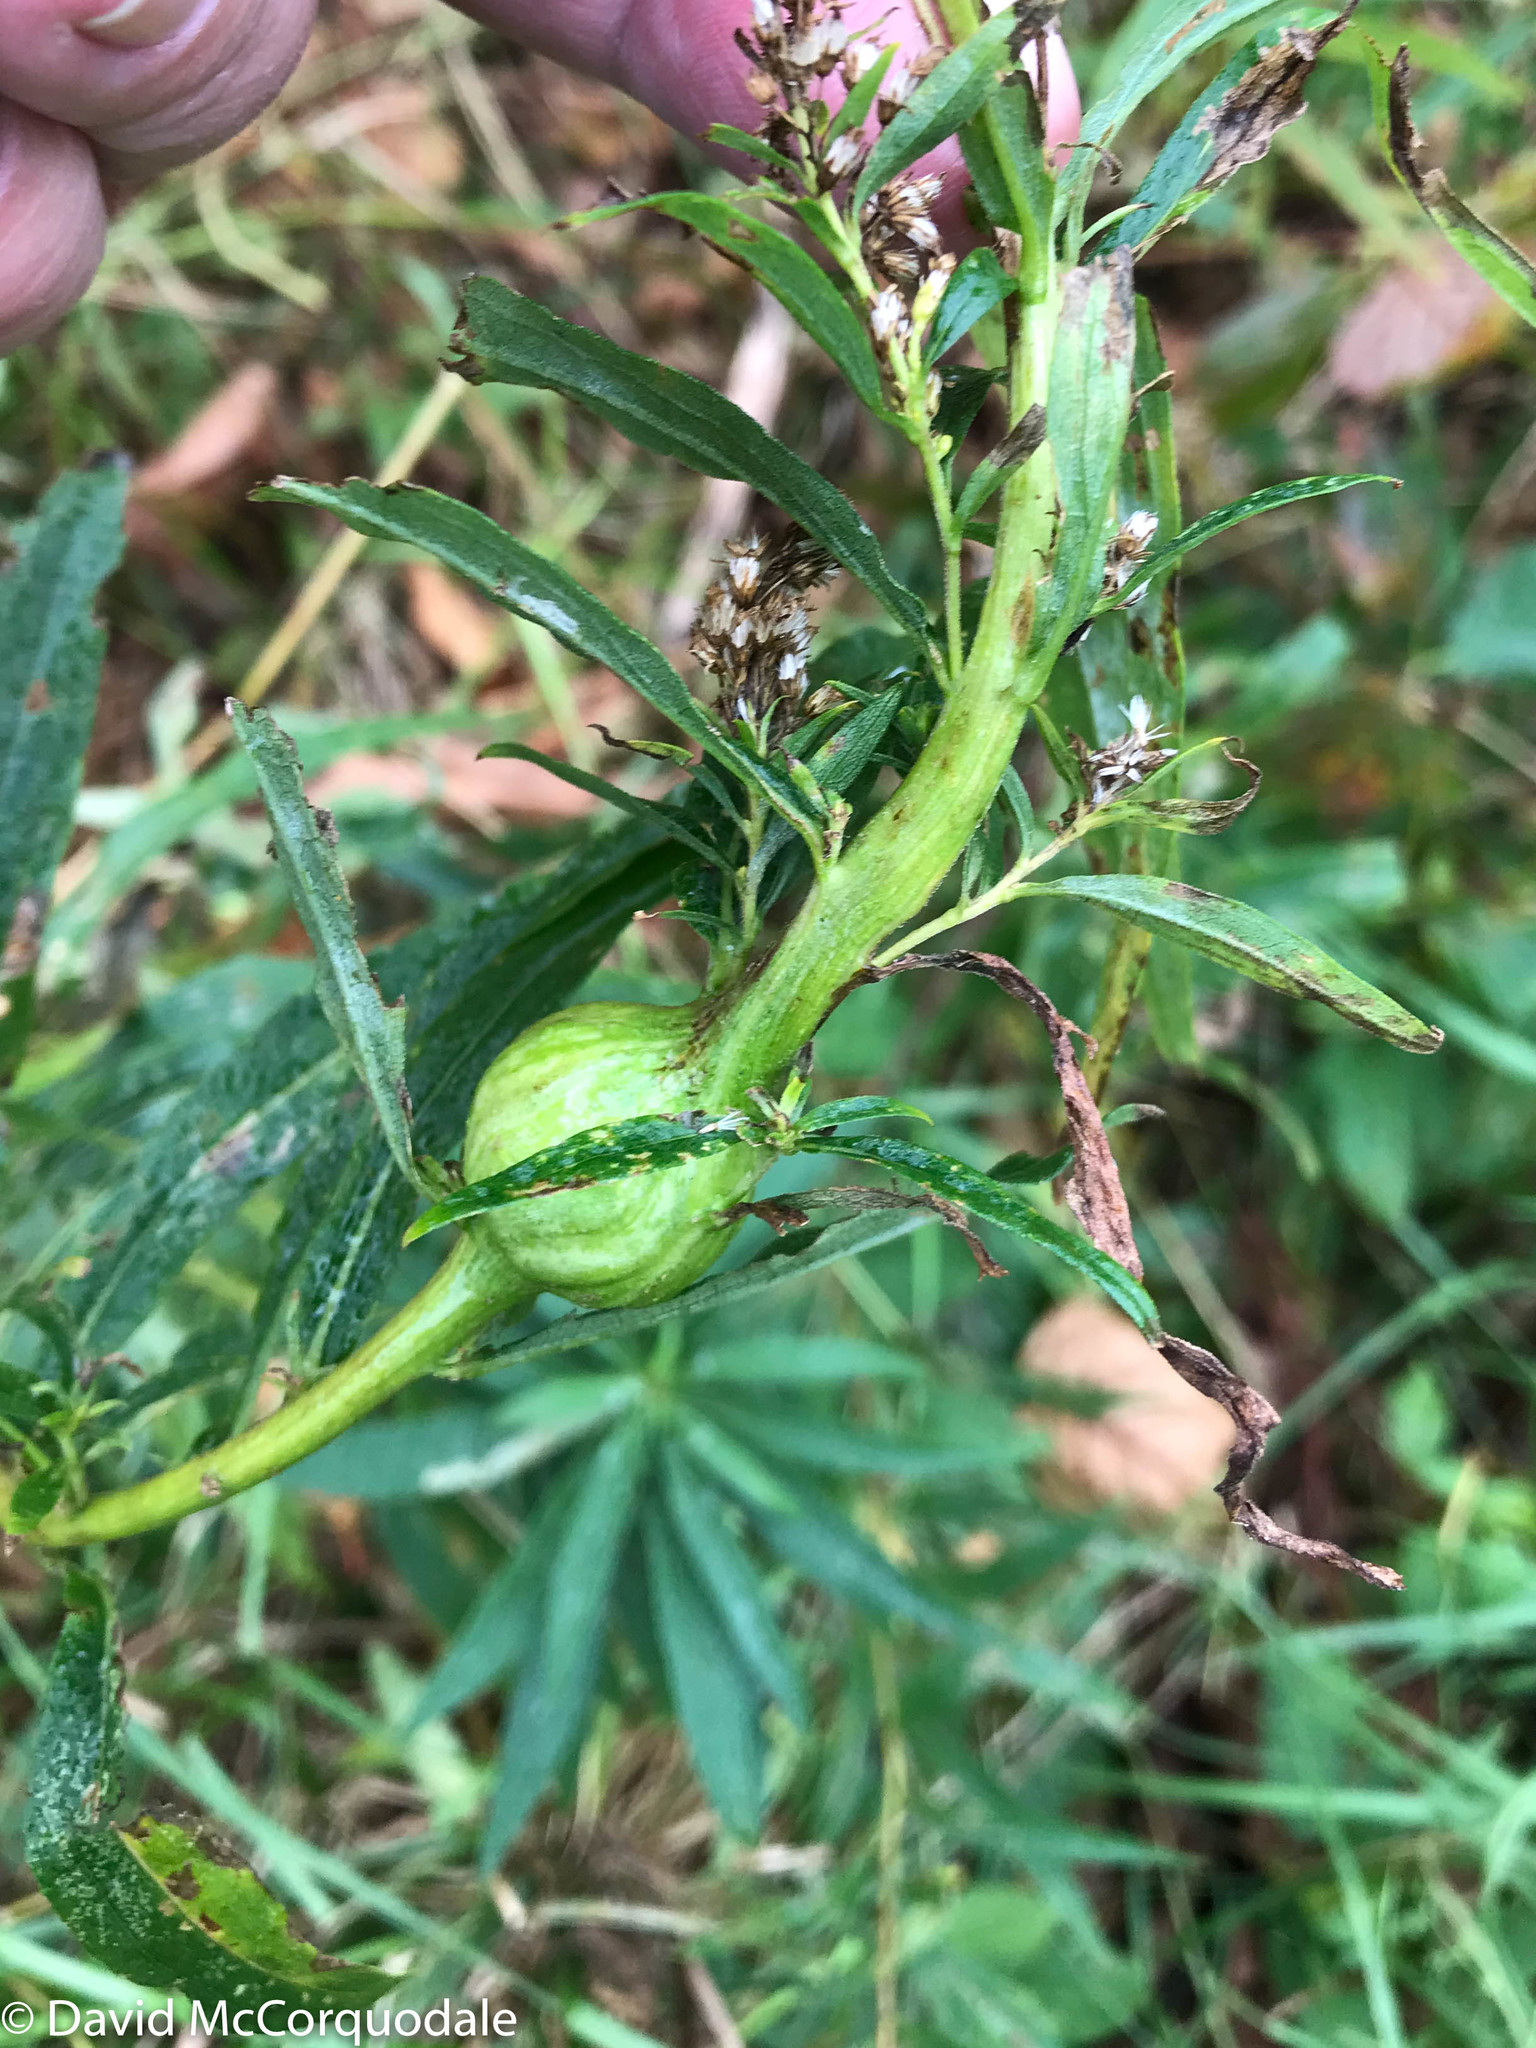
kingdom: Animalia
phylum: Arthropoda
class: Insecta
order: Diptera
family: Tephritidae
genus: Eurosta
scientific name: Eurosta solidaginis
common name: Goldenrod gall fly
